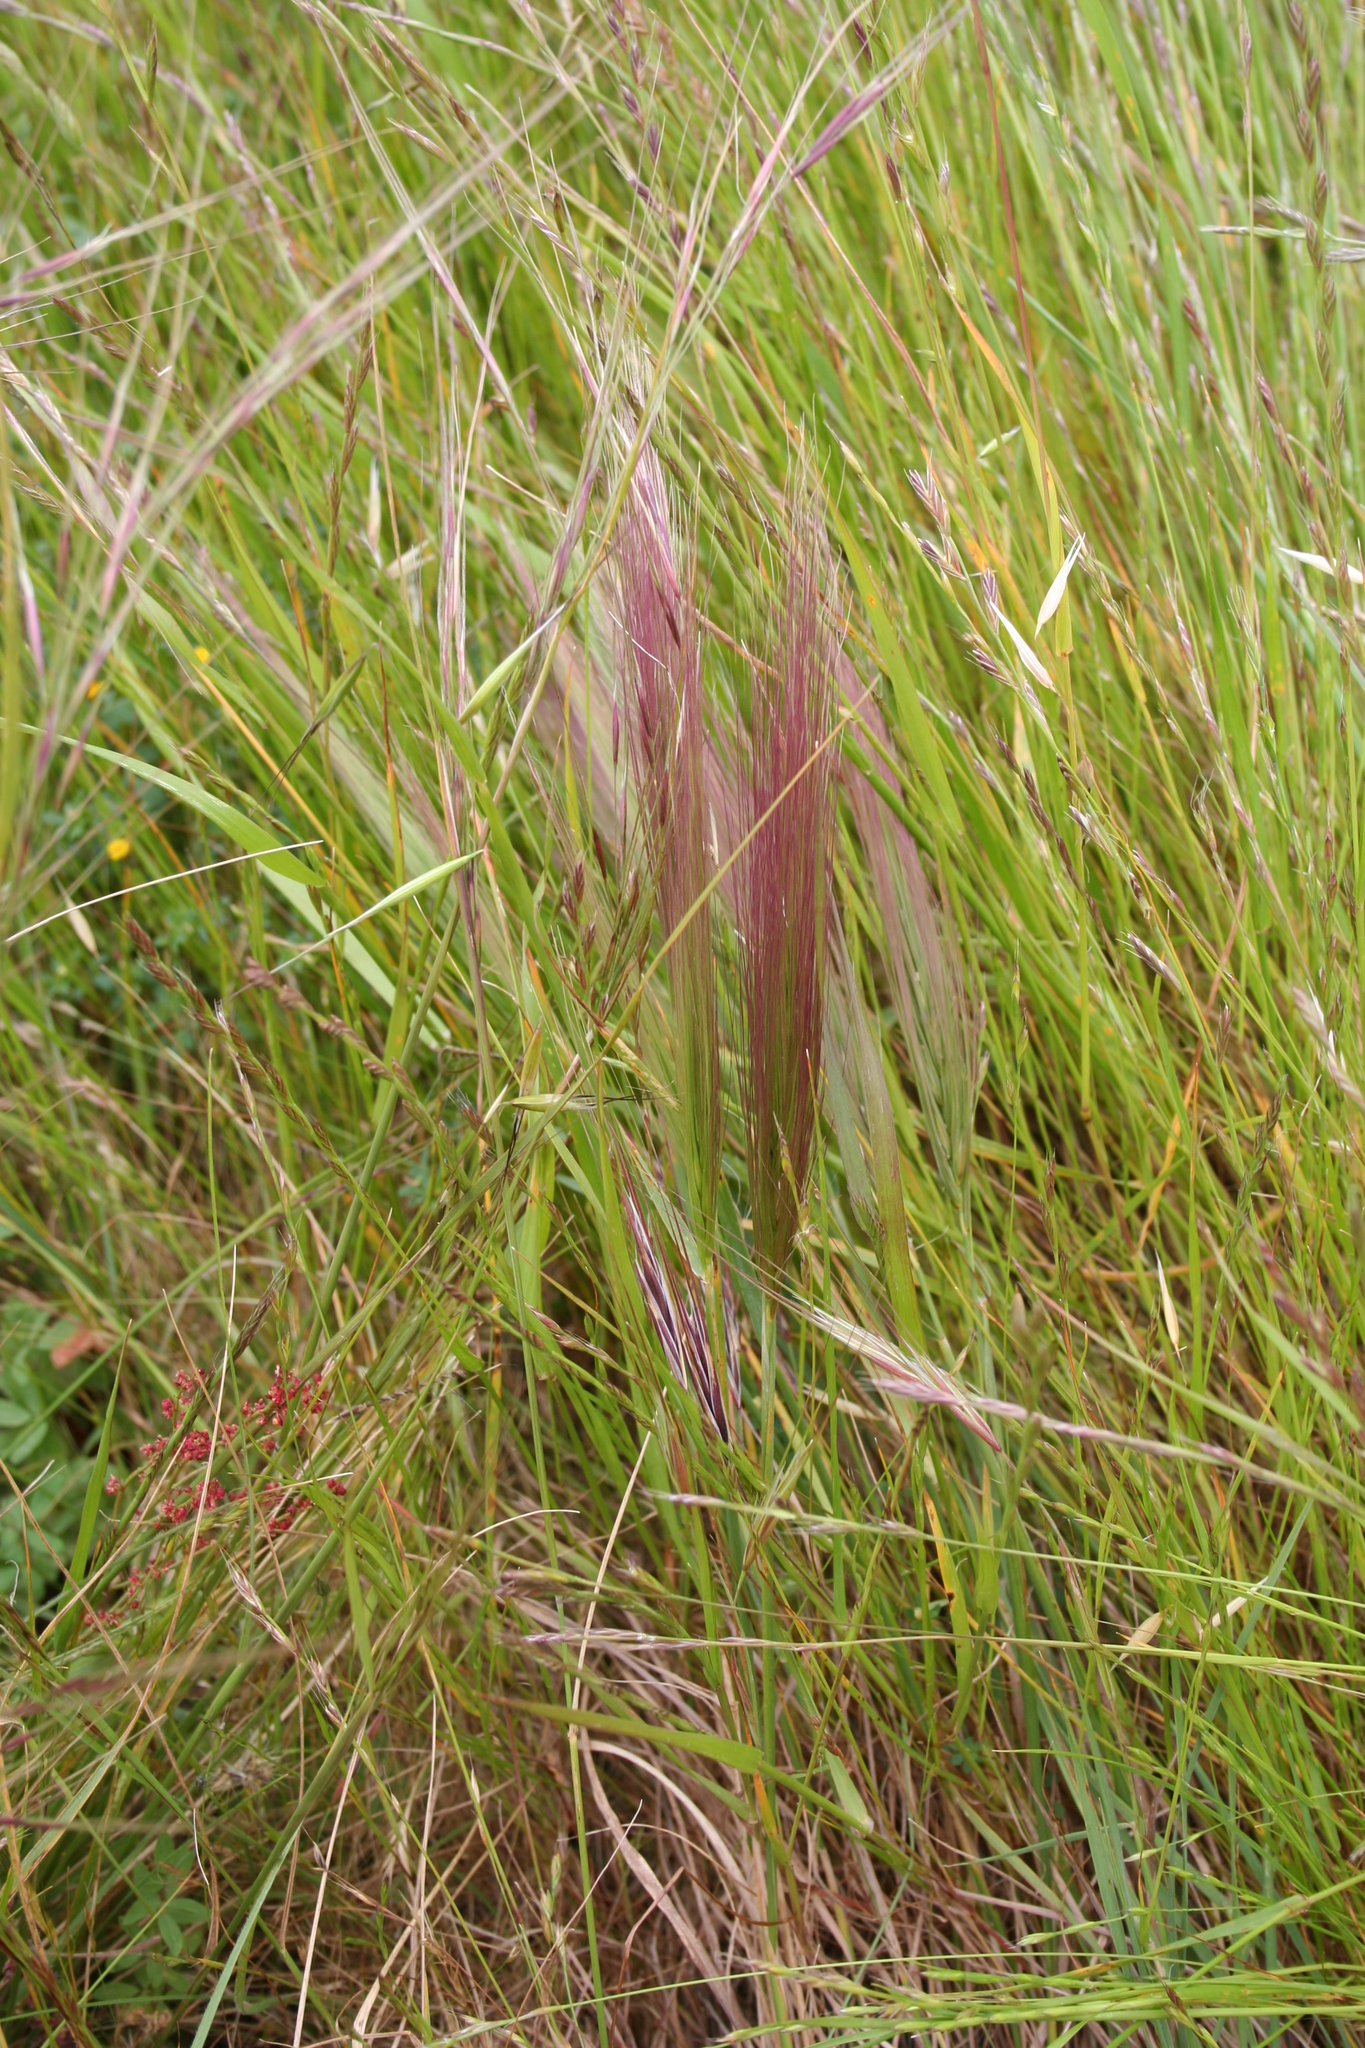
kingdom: Plantae
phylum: Tracheophyta
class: Liliopsida
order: Poales
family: Poaceae
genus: Elymus
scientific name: Elymus multisetus
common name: Big squirreltail
